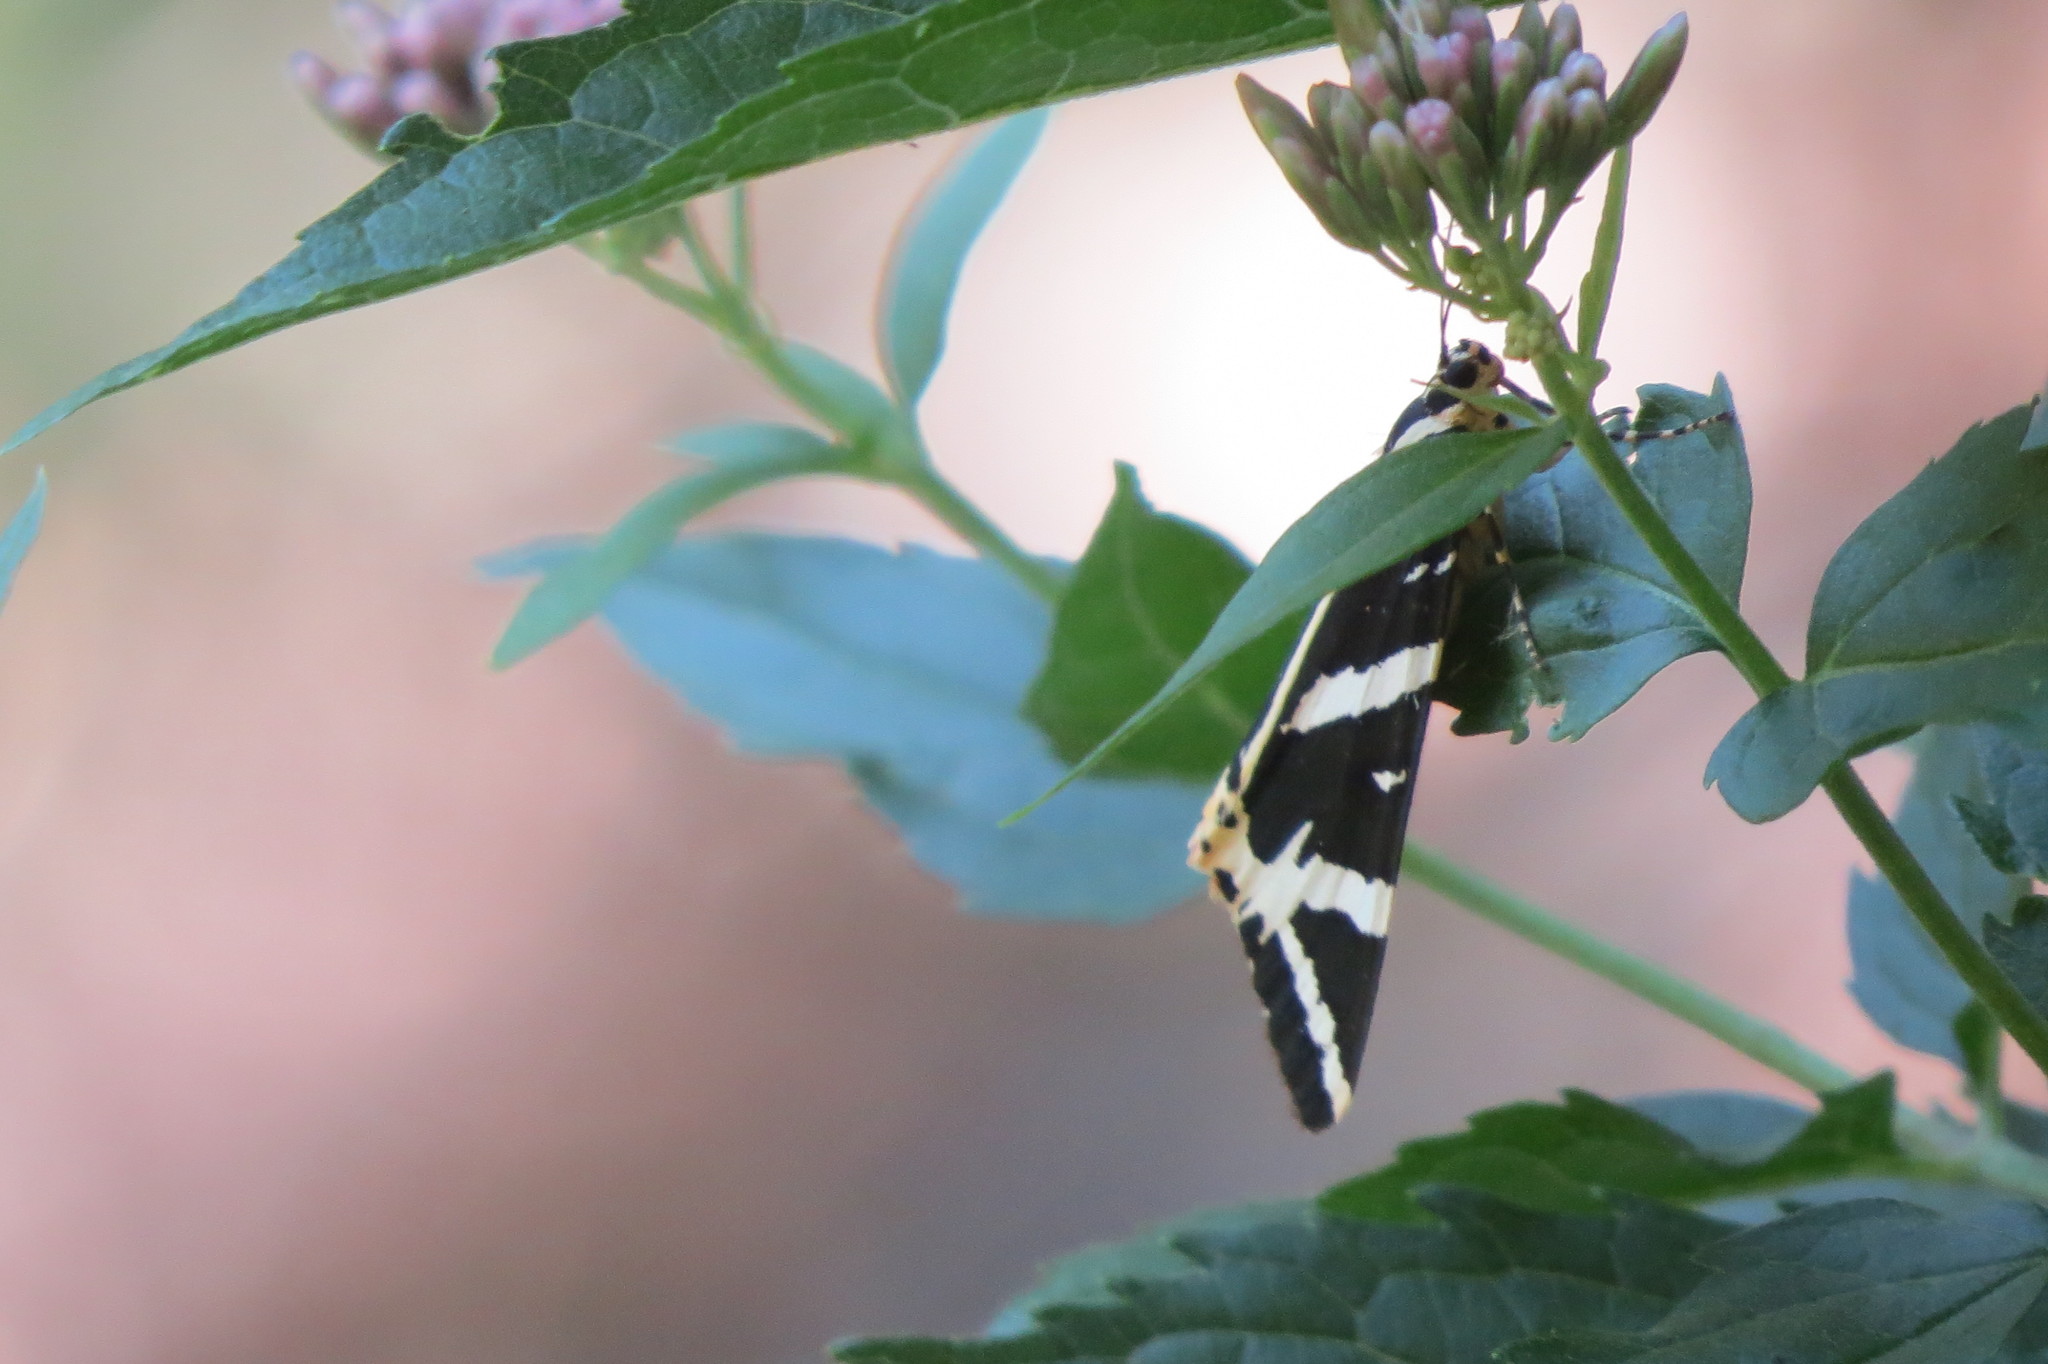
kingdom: Animalia
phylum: Arthropoda
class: Insecta
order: Lepidoptera
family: Erebidae
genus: Euplagia
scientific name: Euplagia quadripunctaria
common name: Jersey tiger
